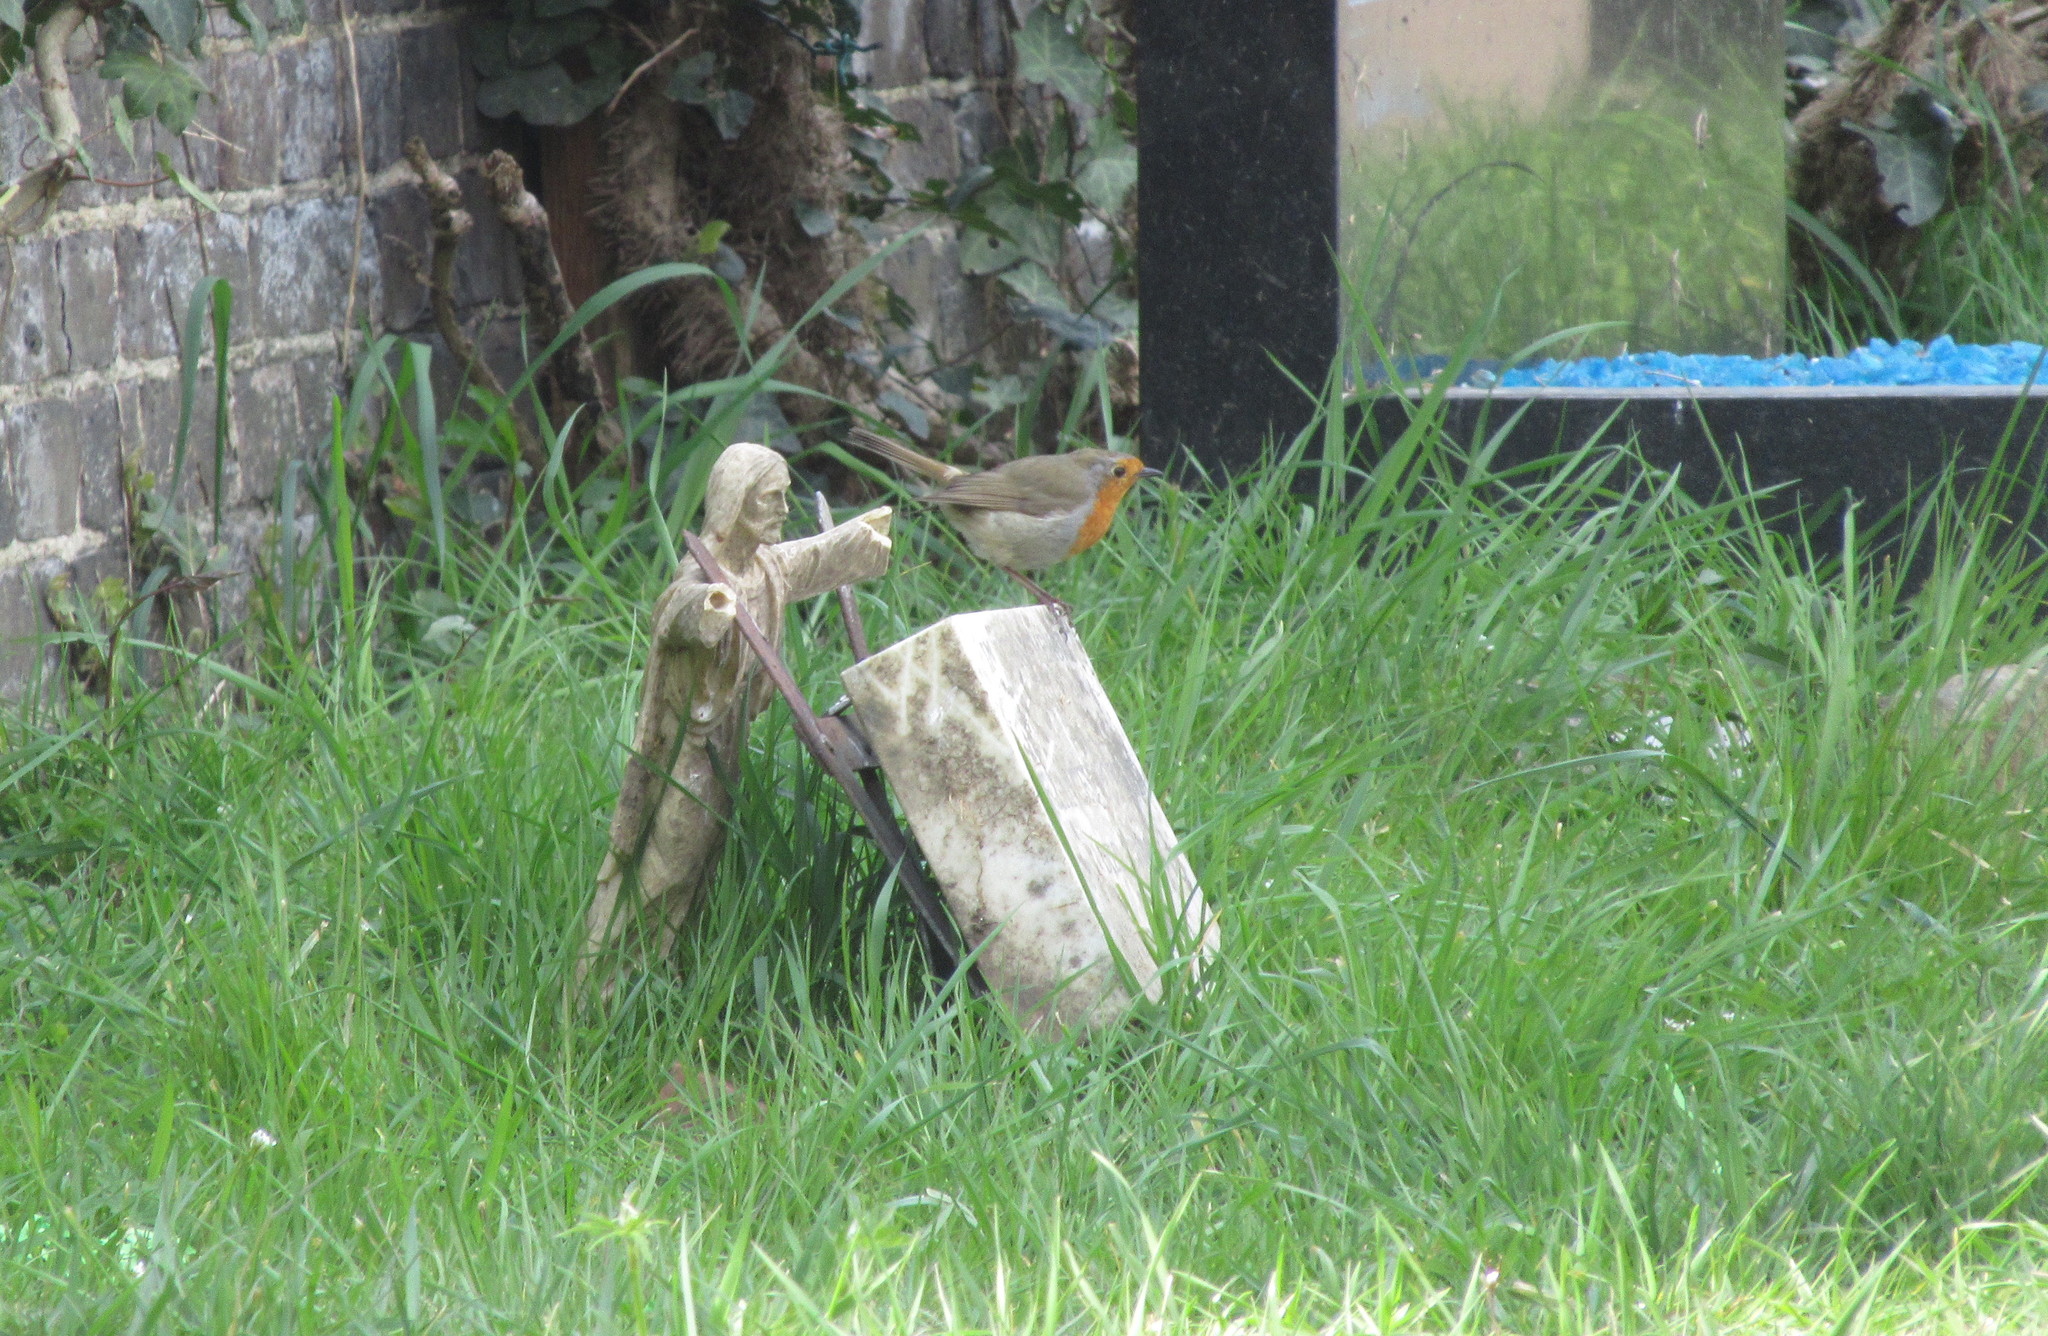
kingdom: Animalia
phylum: Chordata
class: Aves
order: Passeriformes
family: Muscicapidae
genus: Erithacus
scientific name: Erithacus rubecula
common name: European robin
